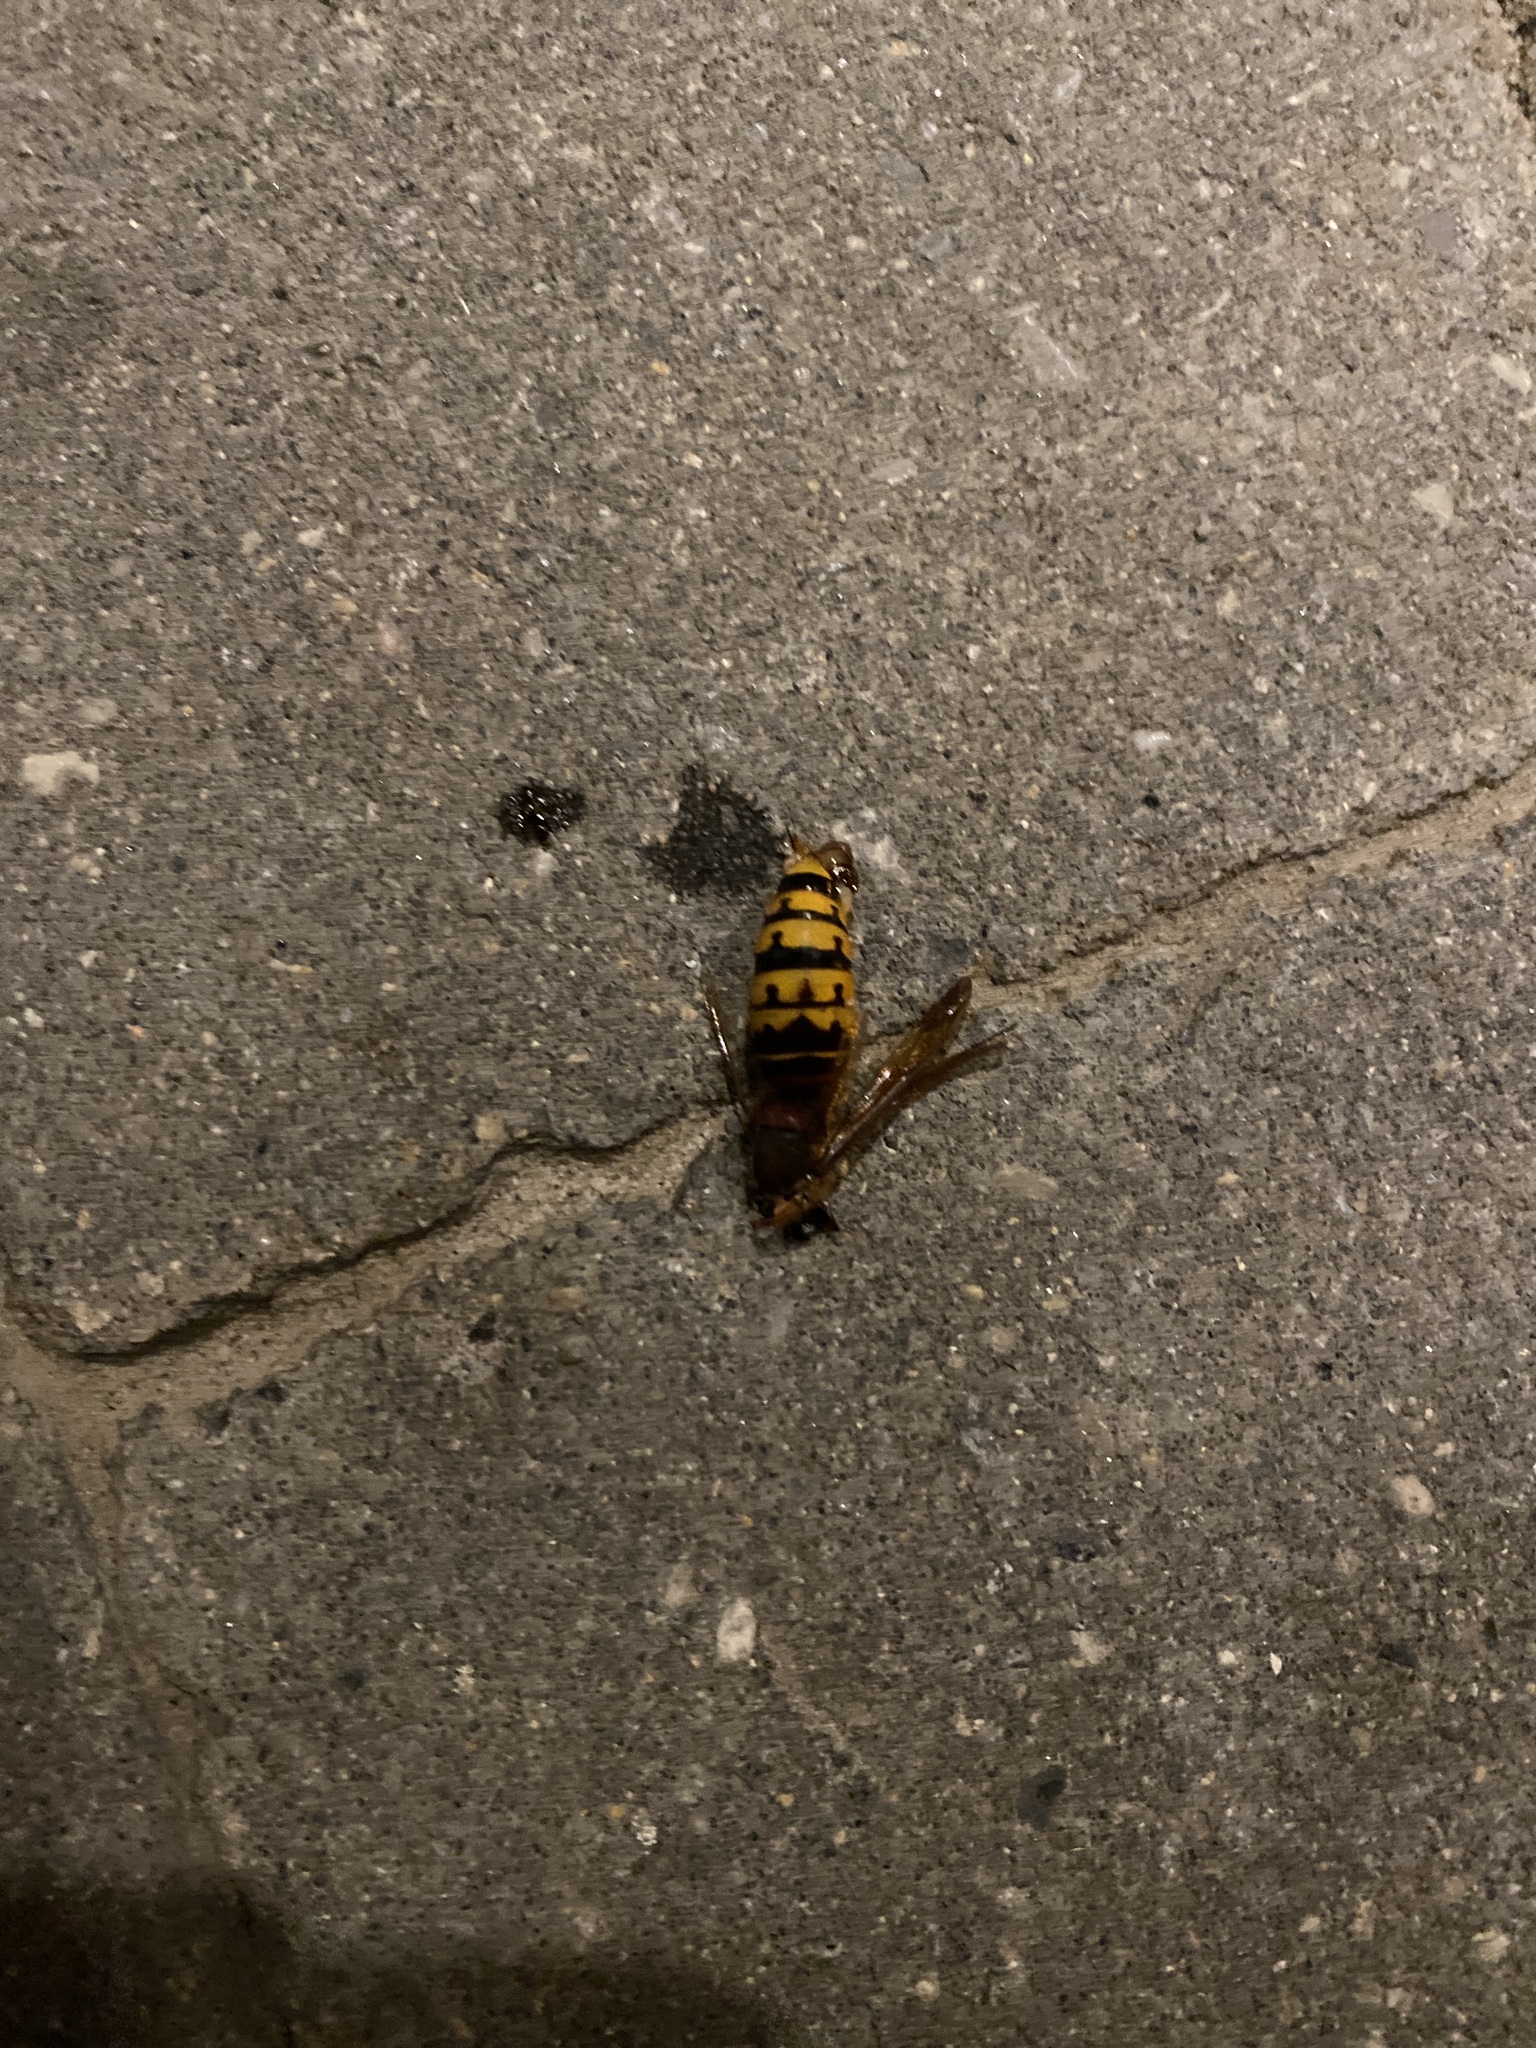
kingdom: Animalia
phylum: Arthropoda
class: Insecta
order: Hymenoptera
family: Vespidae
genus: Vespa
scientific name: Vespa crabro
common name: Hornet
